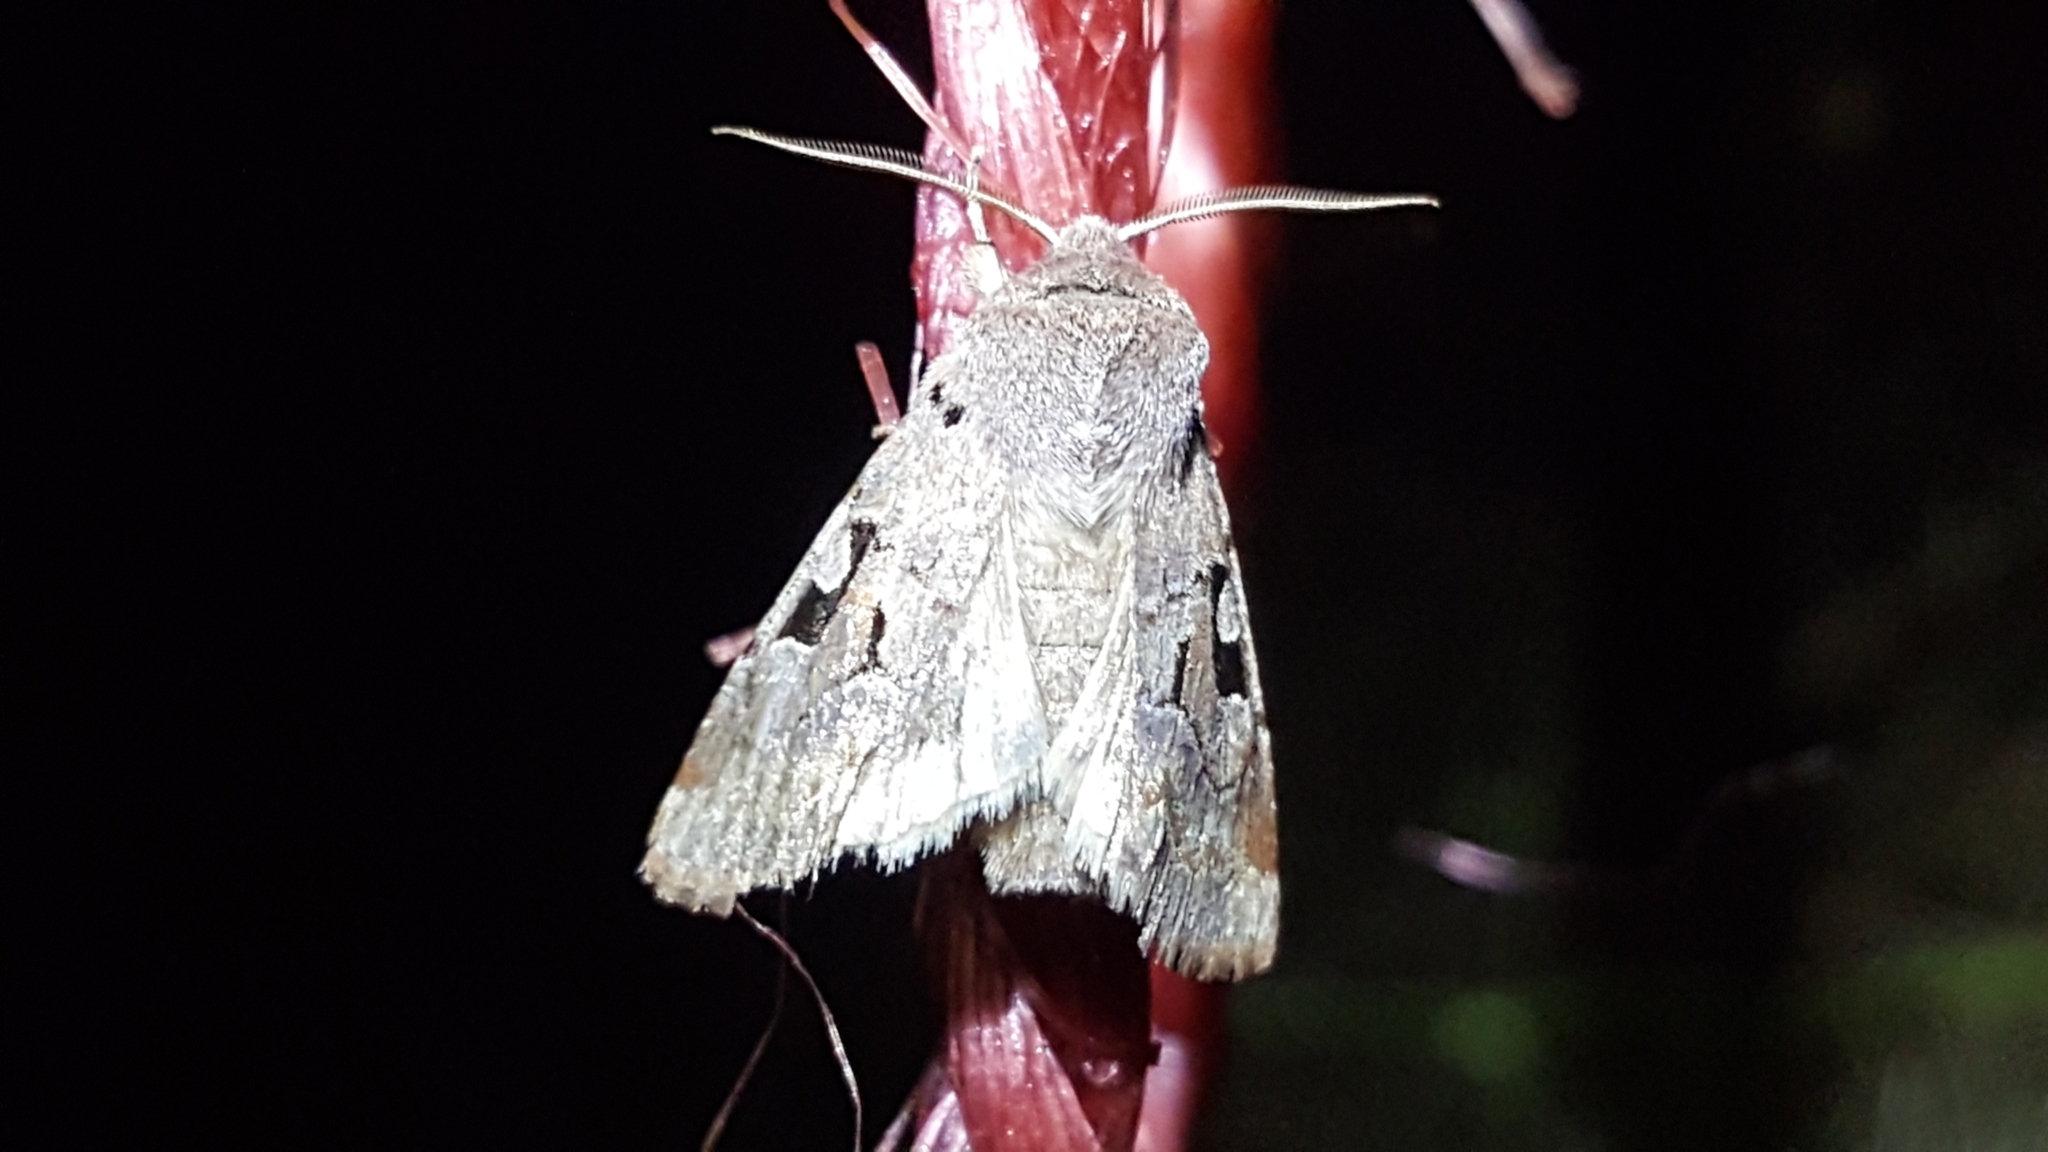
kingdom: Animalia
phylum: Arthropoda
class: Insecta
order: Lepidoptera
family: Noctuidae
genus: Orthosia
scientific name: Orthosia gothica
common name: Hebrew character
